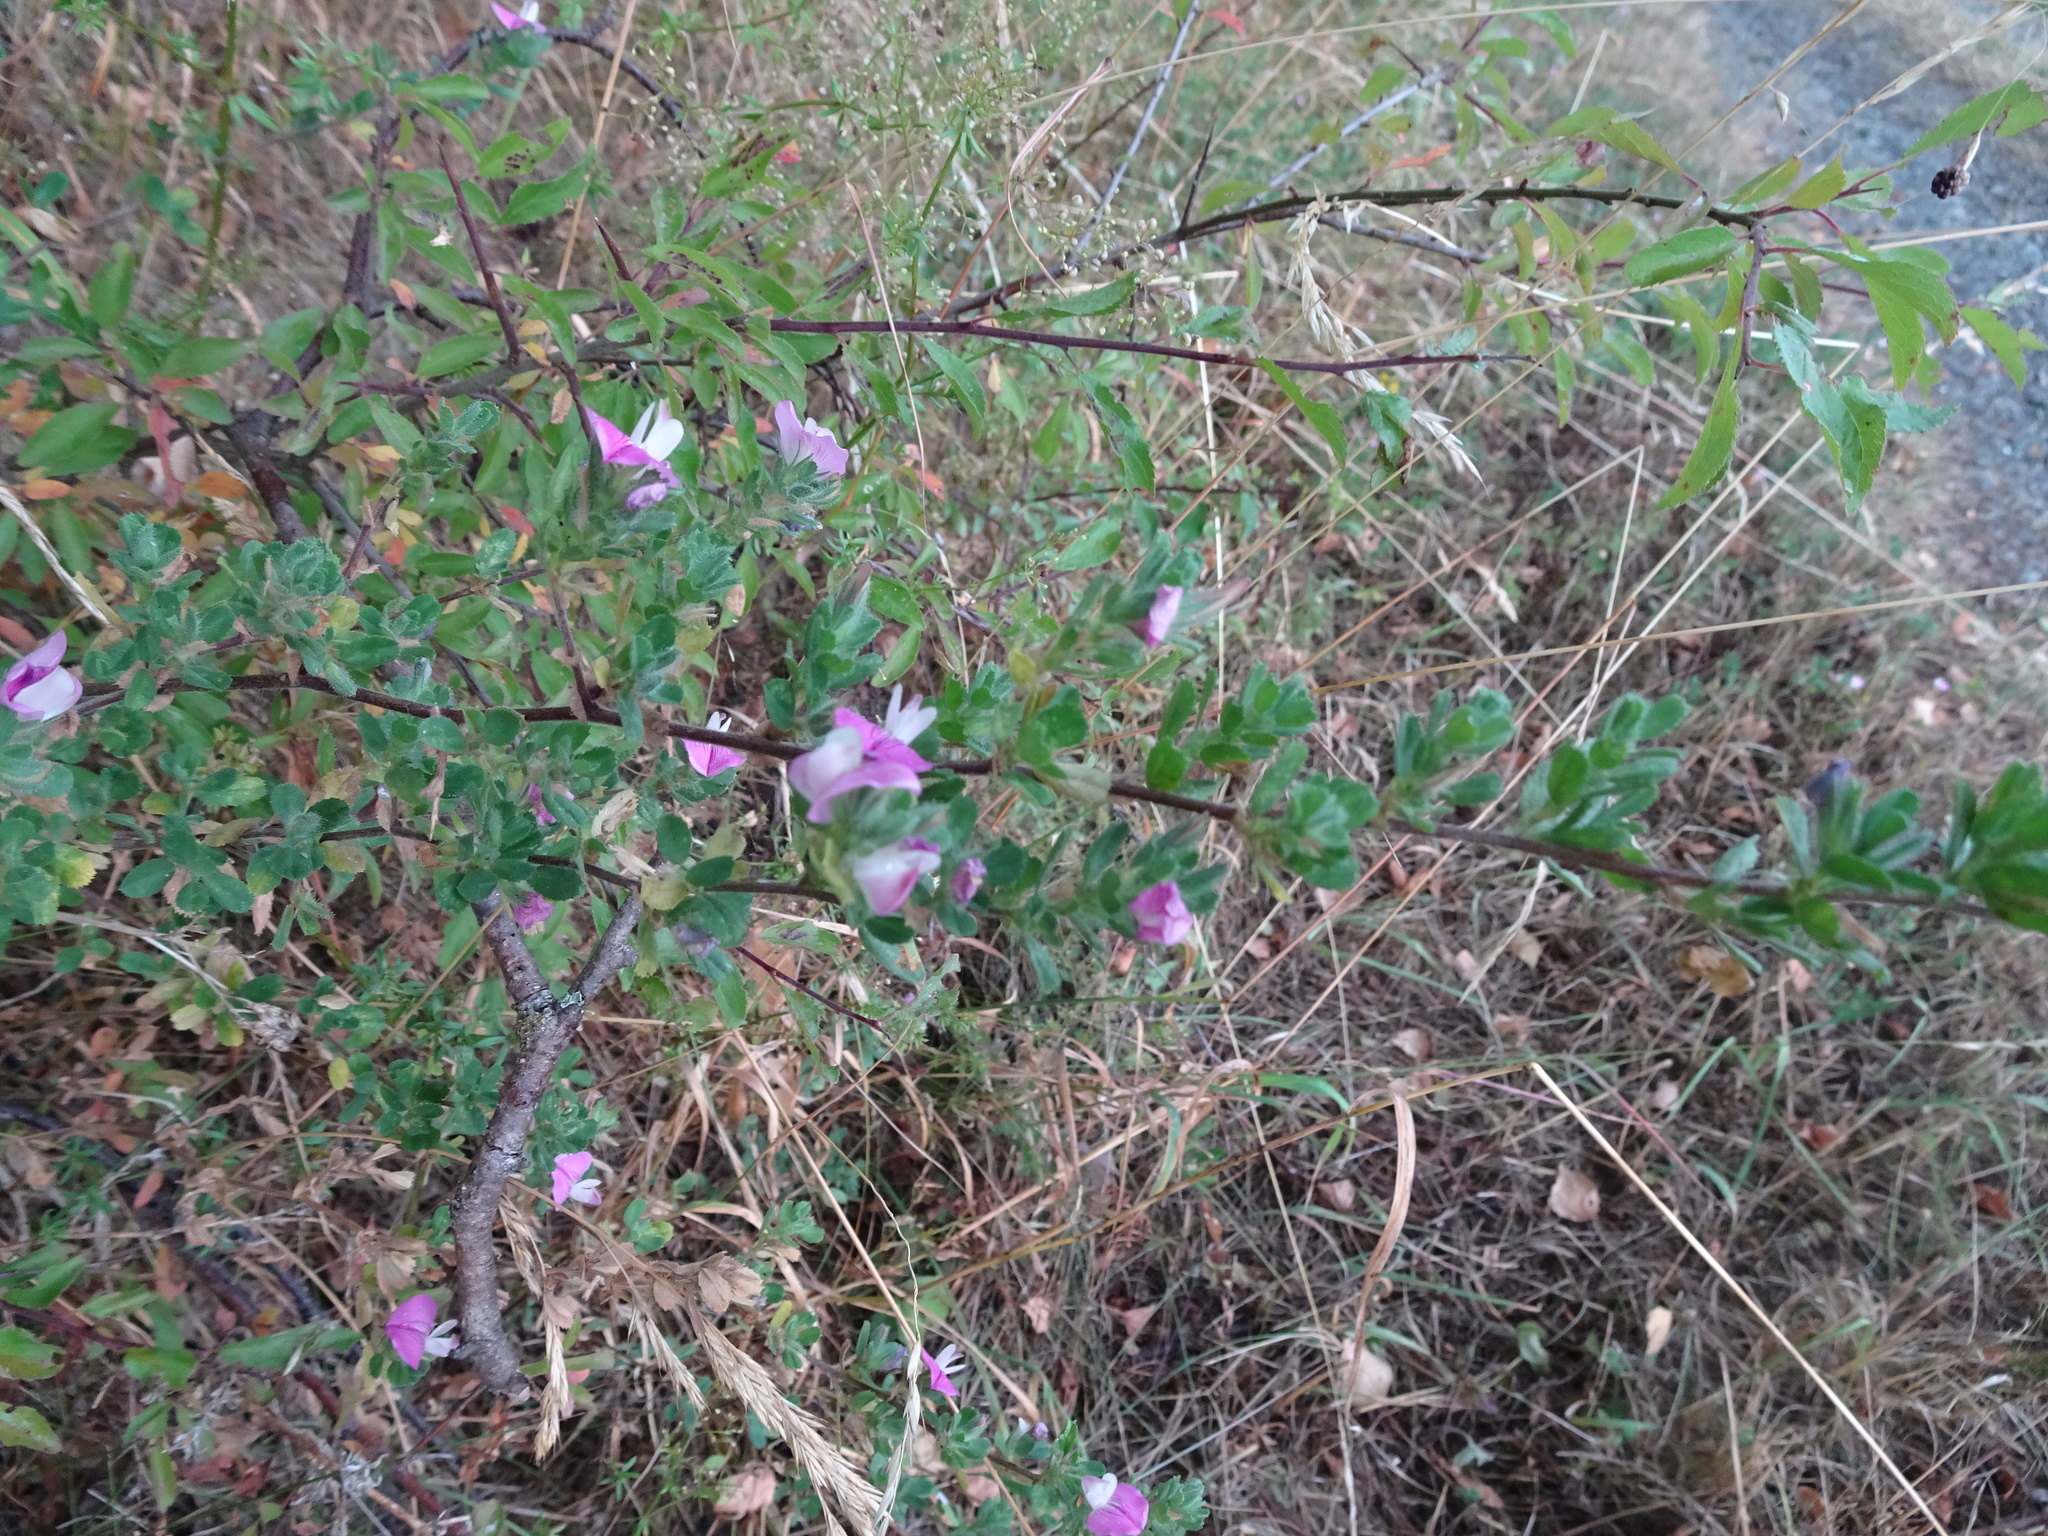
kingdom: Plantae
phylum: Tracheophyta
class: Magnoliopsida
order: Fabales
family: Fabaceae
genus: Ononis
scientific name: Ononis spinosa
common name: Spiny restharrow
